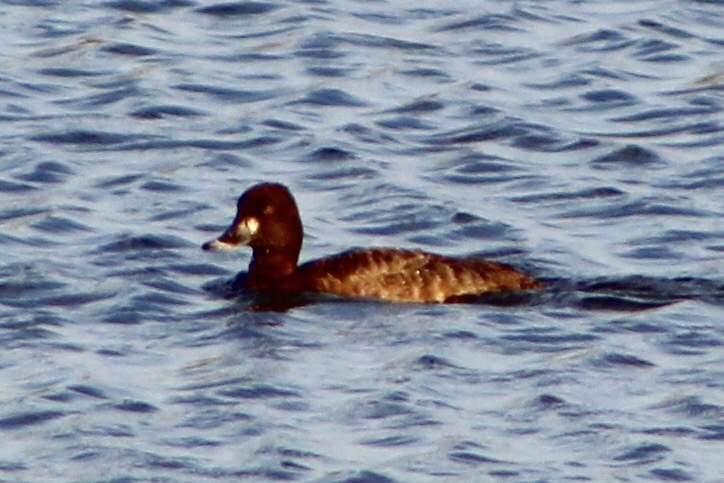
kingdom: Animalia
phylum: Chordata
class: Aves
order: Anseriformes
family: Anatidae
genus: Aythya
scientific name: Aythya affinis
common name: Lesser scaup
